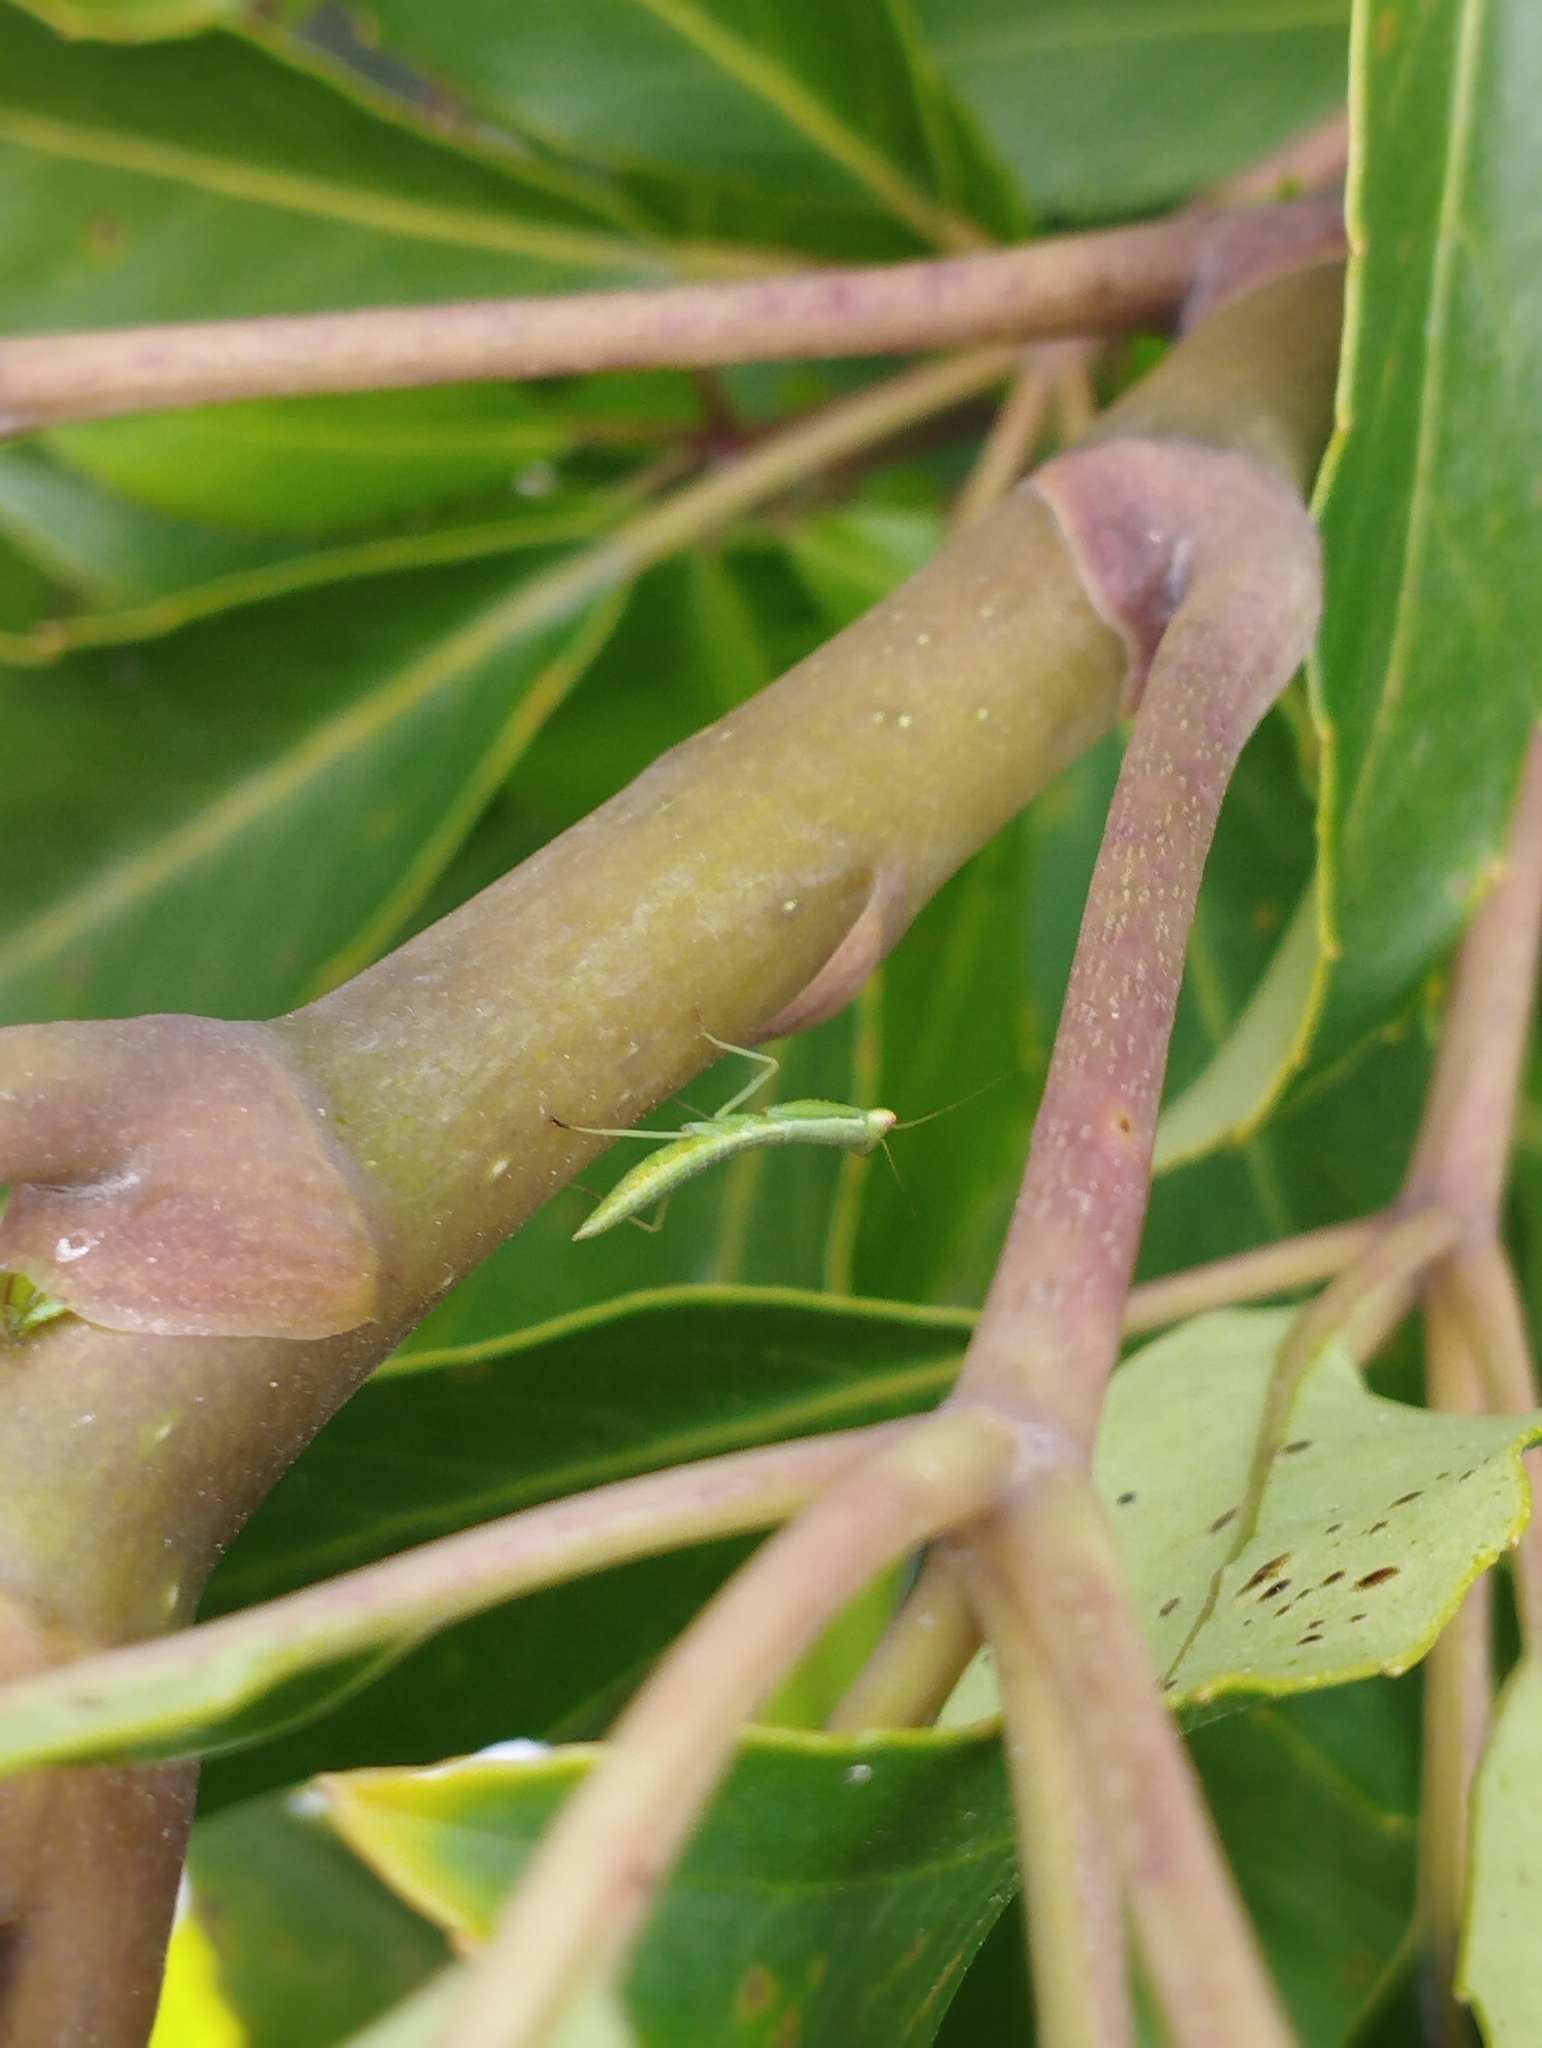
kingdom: Animalia
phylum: Arthropoda
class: Insecta
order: Mantodea
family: Mantidae
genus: Orthodera
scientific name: Orthodera novaezealandiae
